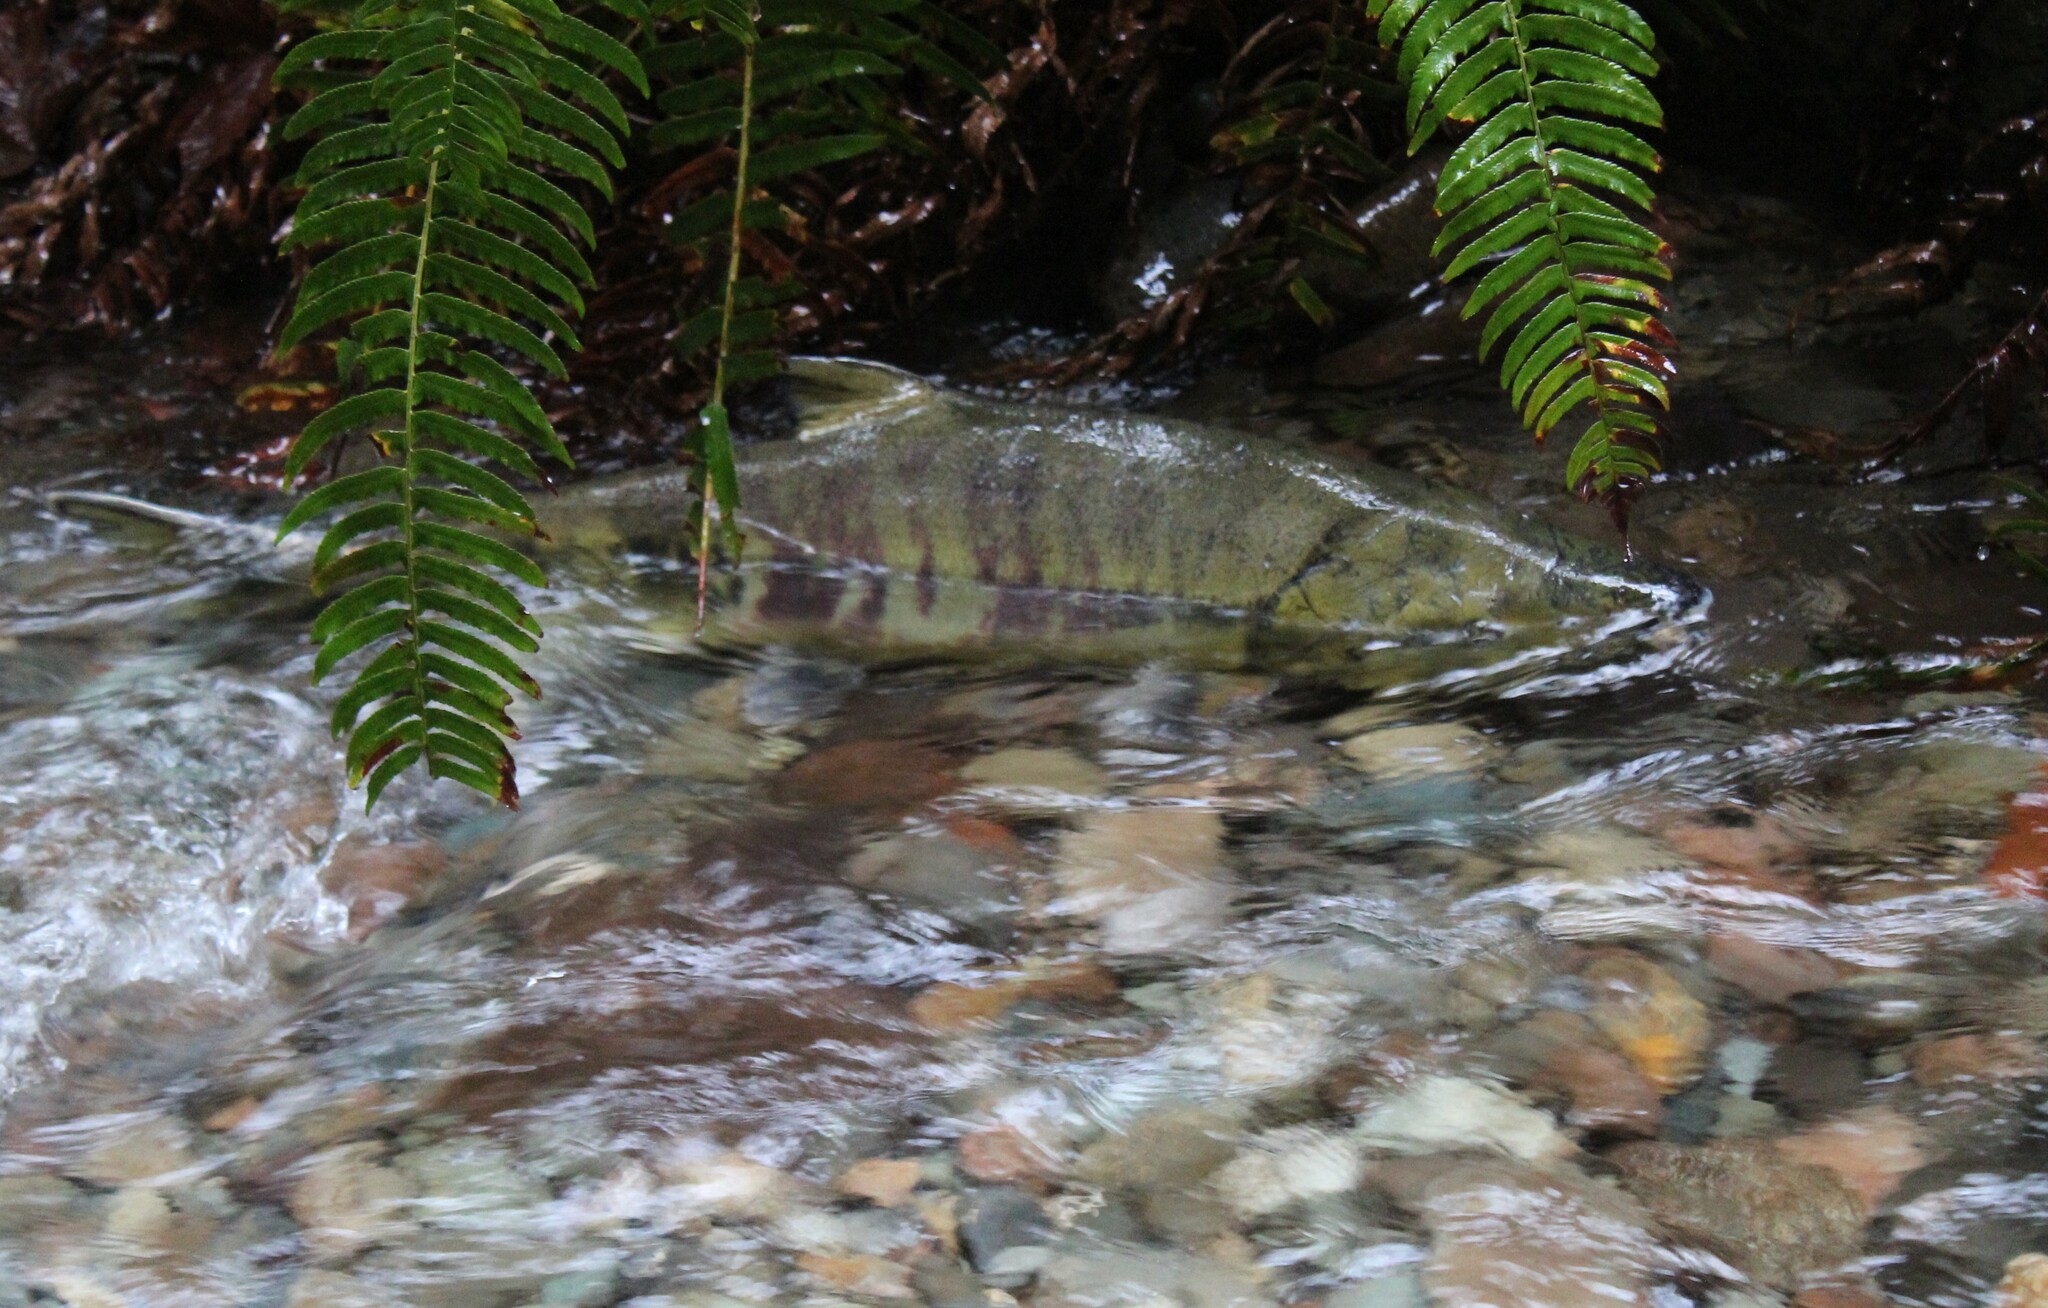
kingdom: Animalia
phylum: Chordata
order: Salmoniformes
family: Salmonidae
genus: Oncorhynchus
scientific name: Oncorhynchus keta
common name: Chum salmon
